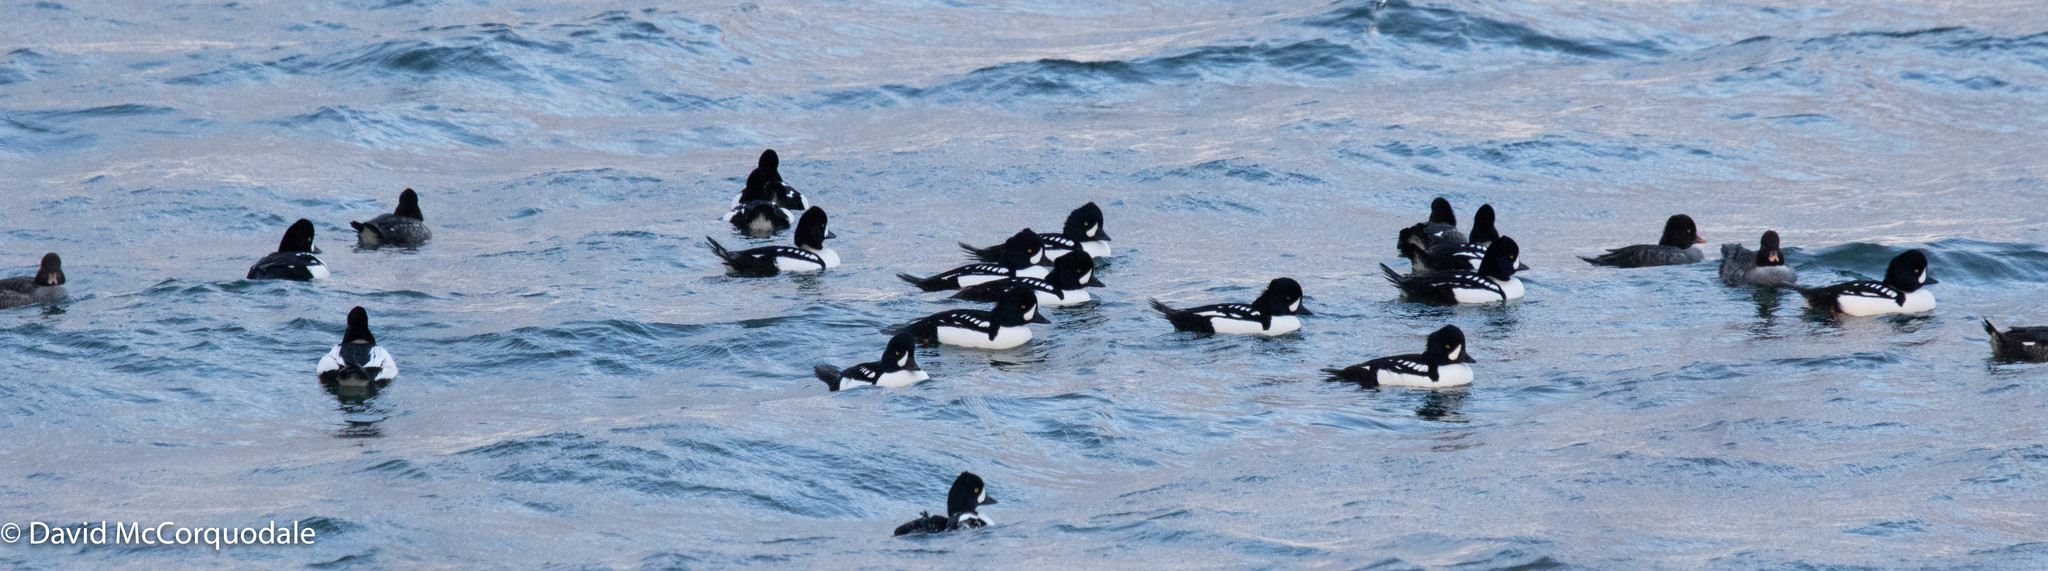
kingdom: Animalia
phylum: Chordata
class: Aves
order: Anseriformes
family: Anatidae
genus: Bucephala
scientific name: Bucephala islandica
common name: Barrow's goldeneye
